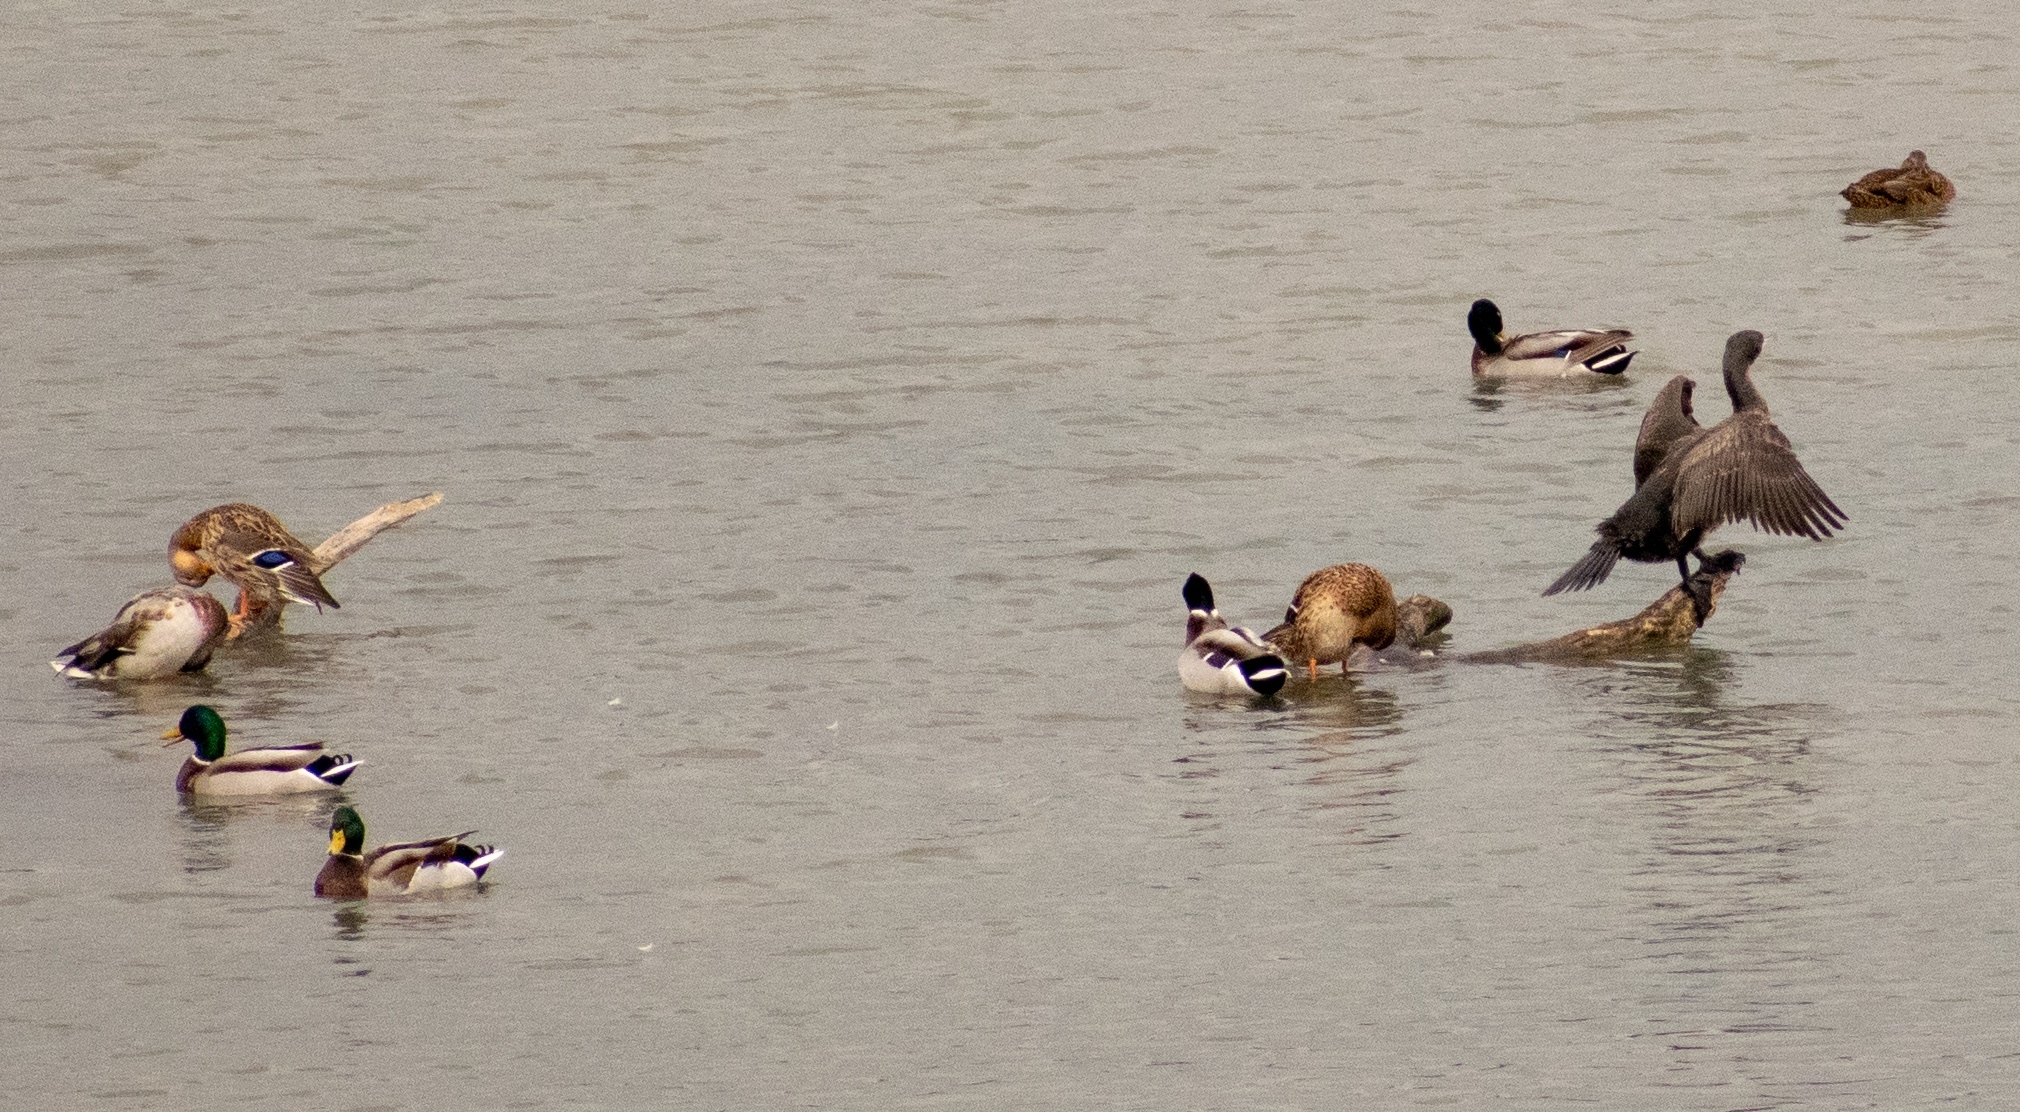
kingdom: Animalia
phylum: Chordata
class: Aves
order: Anseriformes
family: Anatidae
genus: Anas
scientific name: Anas platyrhynchos
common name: Mallard
